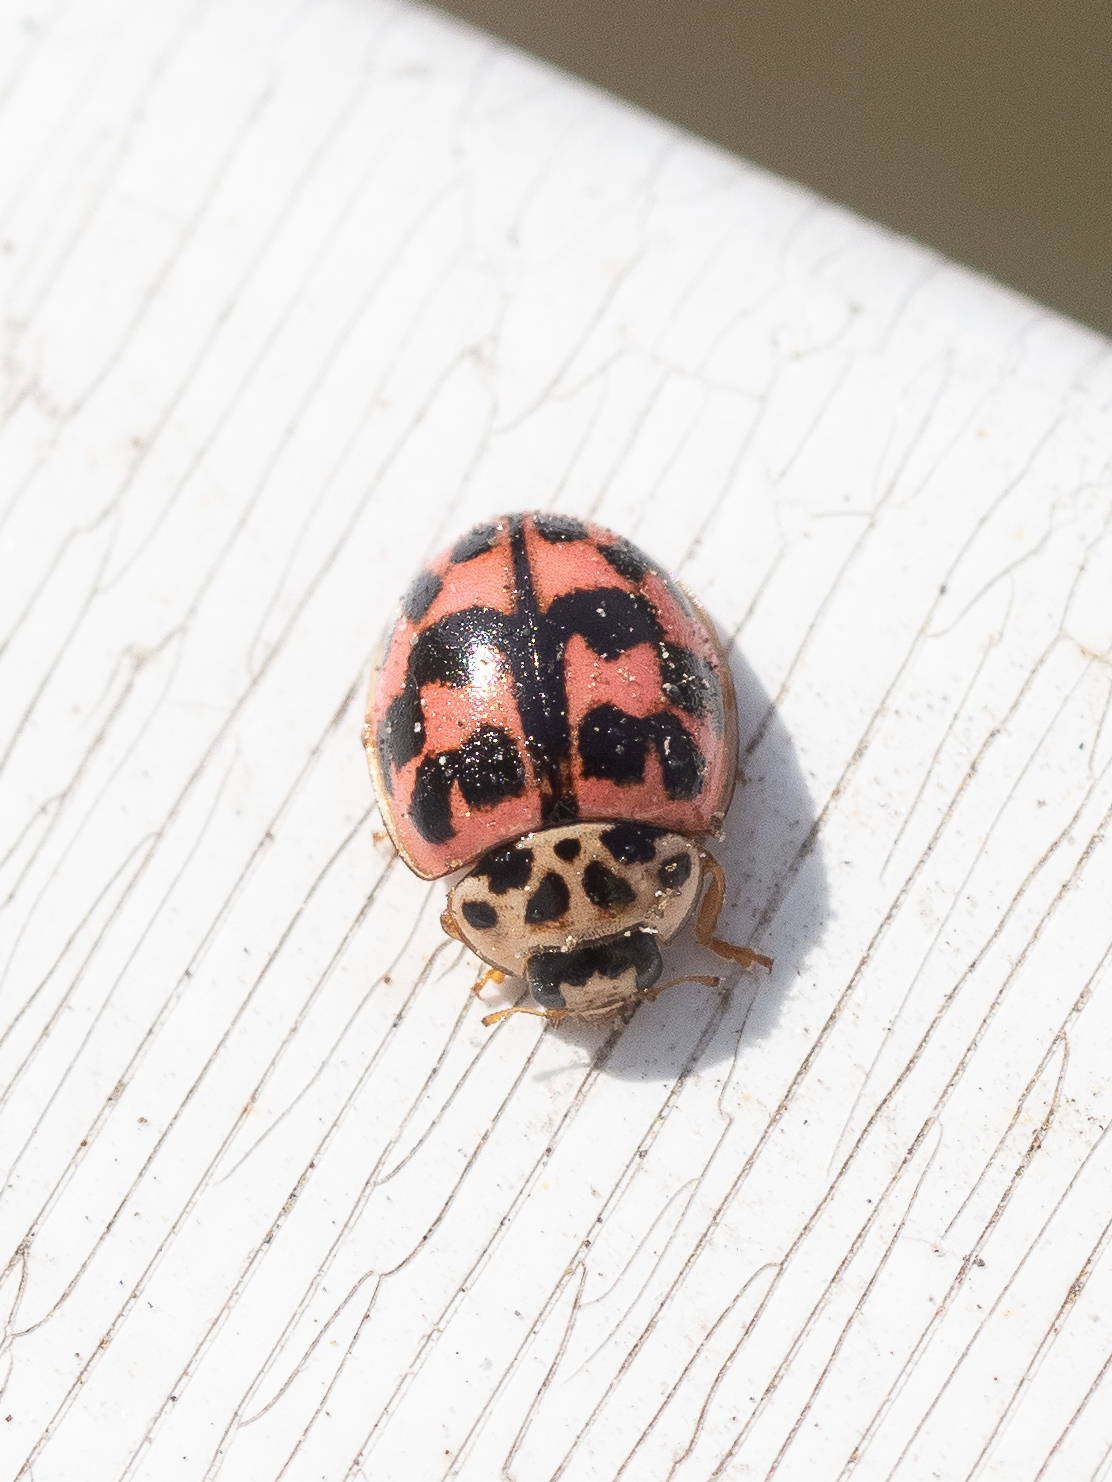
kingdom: Animalia
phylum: Arthropoda
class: Insecta
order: Coleoptera
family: Coccinellidae
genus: Oenopia
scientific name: Oenopia conglobata
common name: Ladybird beetle
